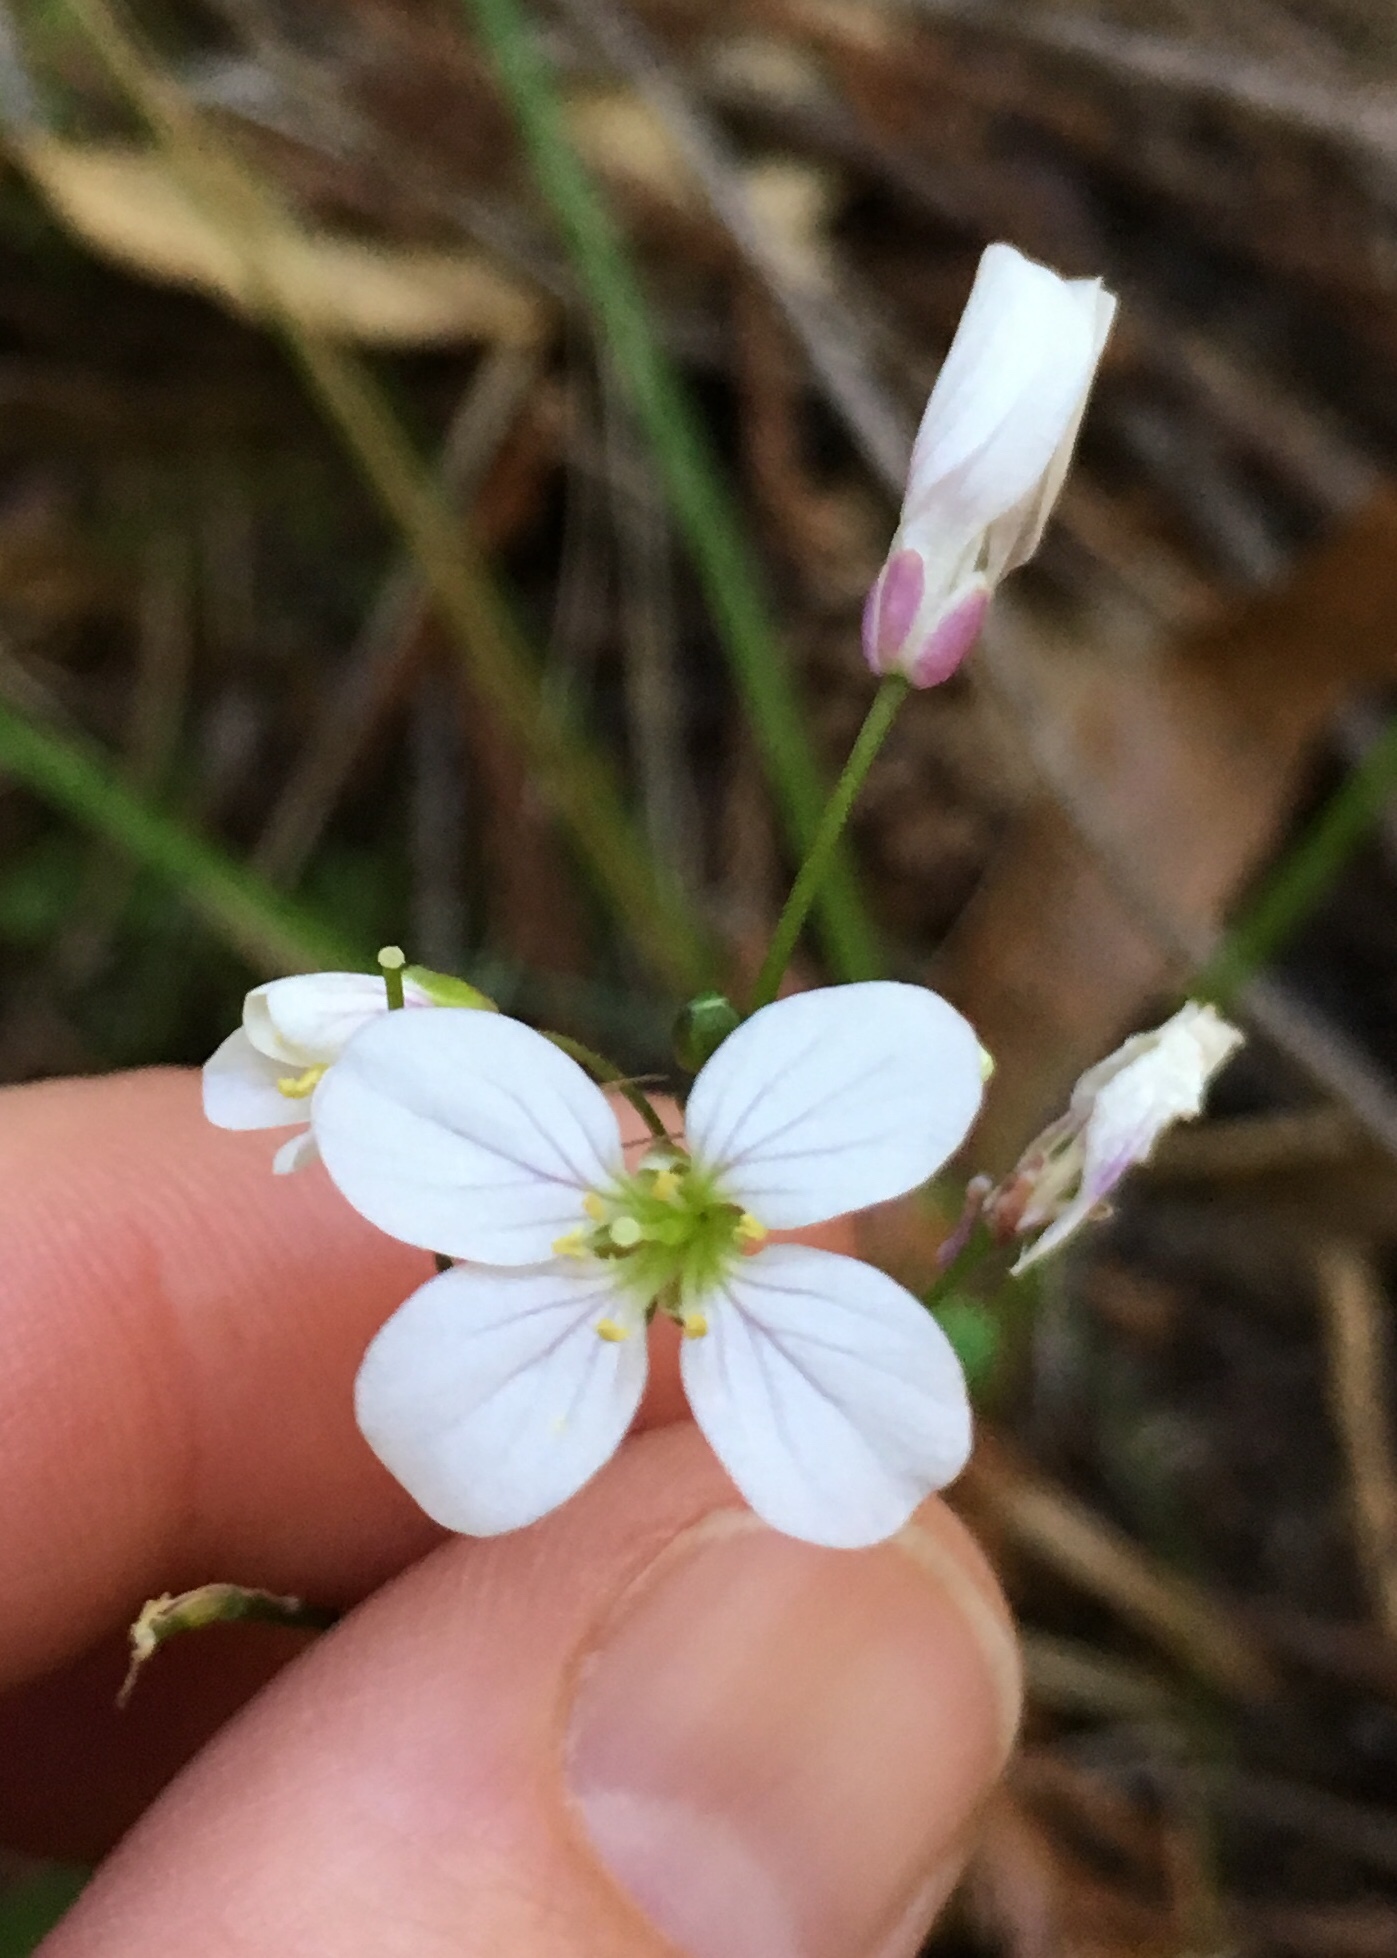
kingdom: Plantae
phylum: Tracheophyta
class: Magnoliopsida
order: Brassicales
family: Brassicaceae
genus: Cardamine
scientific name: Cardamine californica
